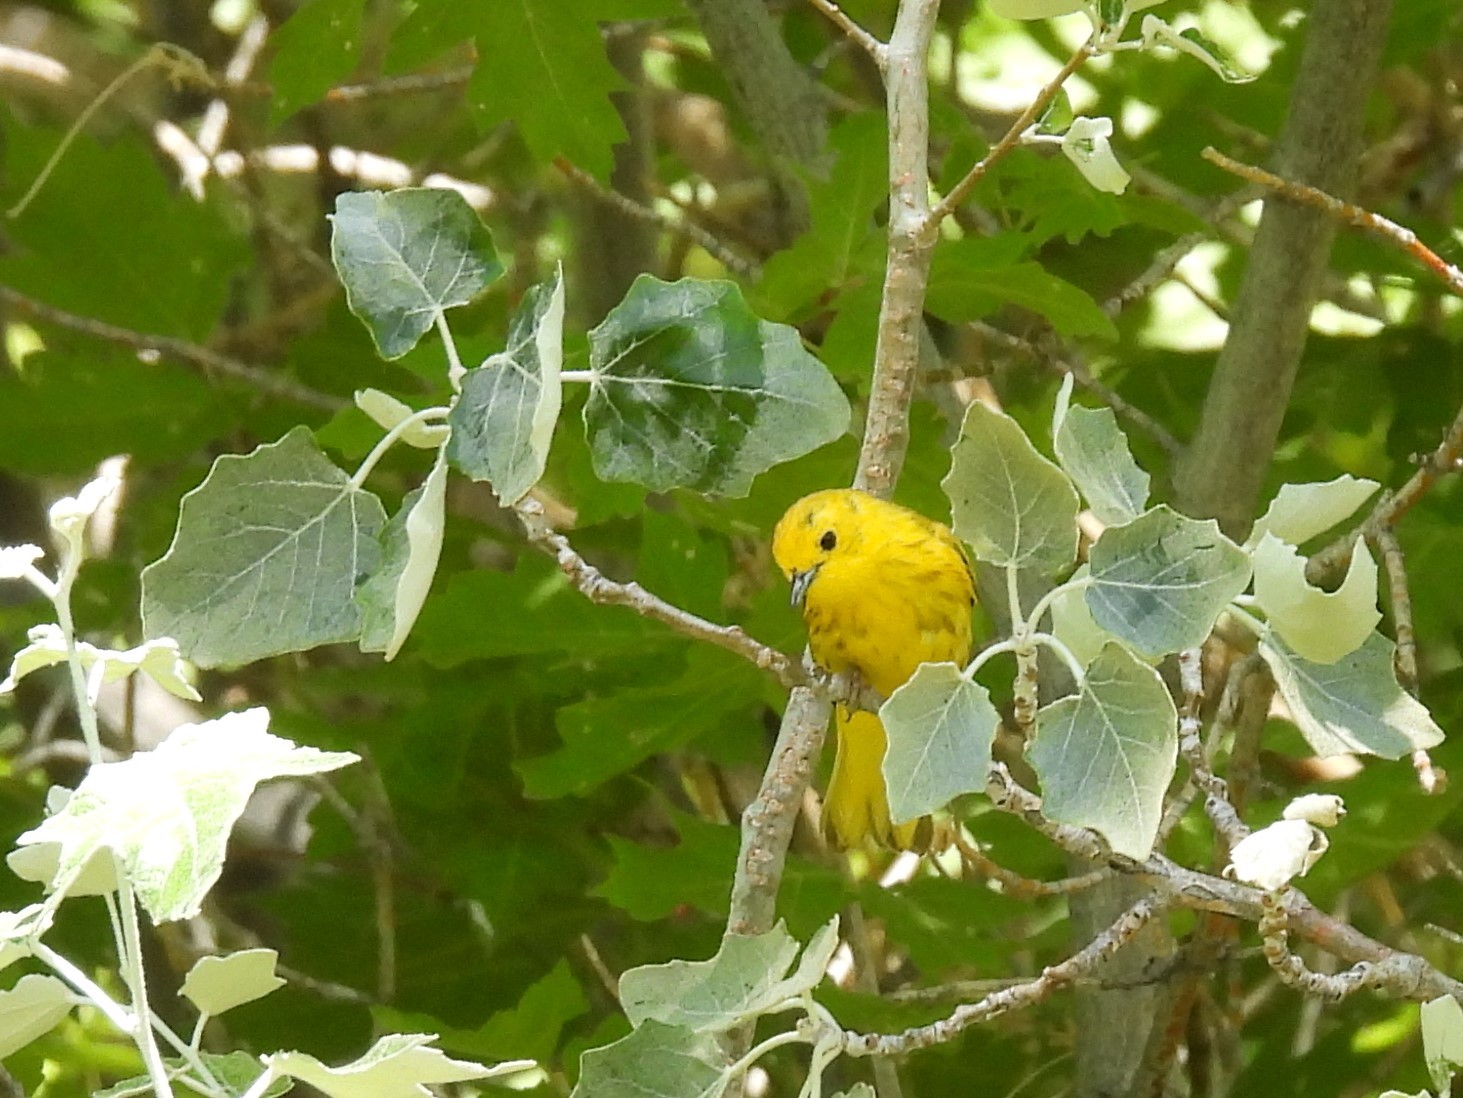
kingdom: Animalia
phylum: Chordata
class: Aves
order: Passeriformes
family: Parulidae
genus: Setophaga
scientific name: Setophaga petechia
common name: Yellow warbler
